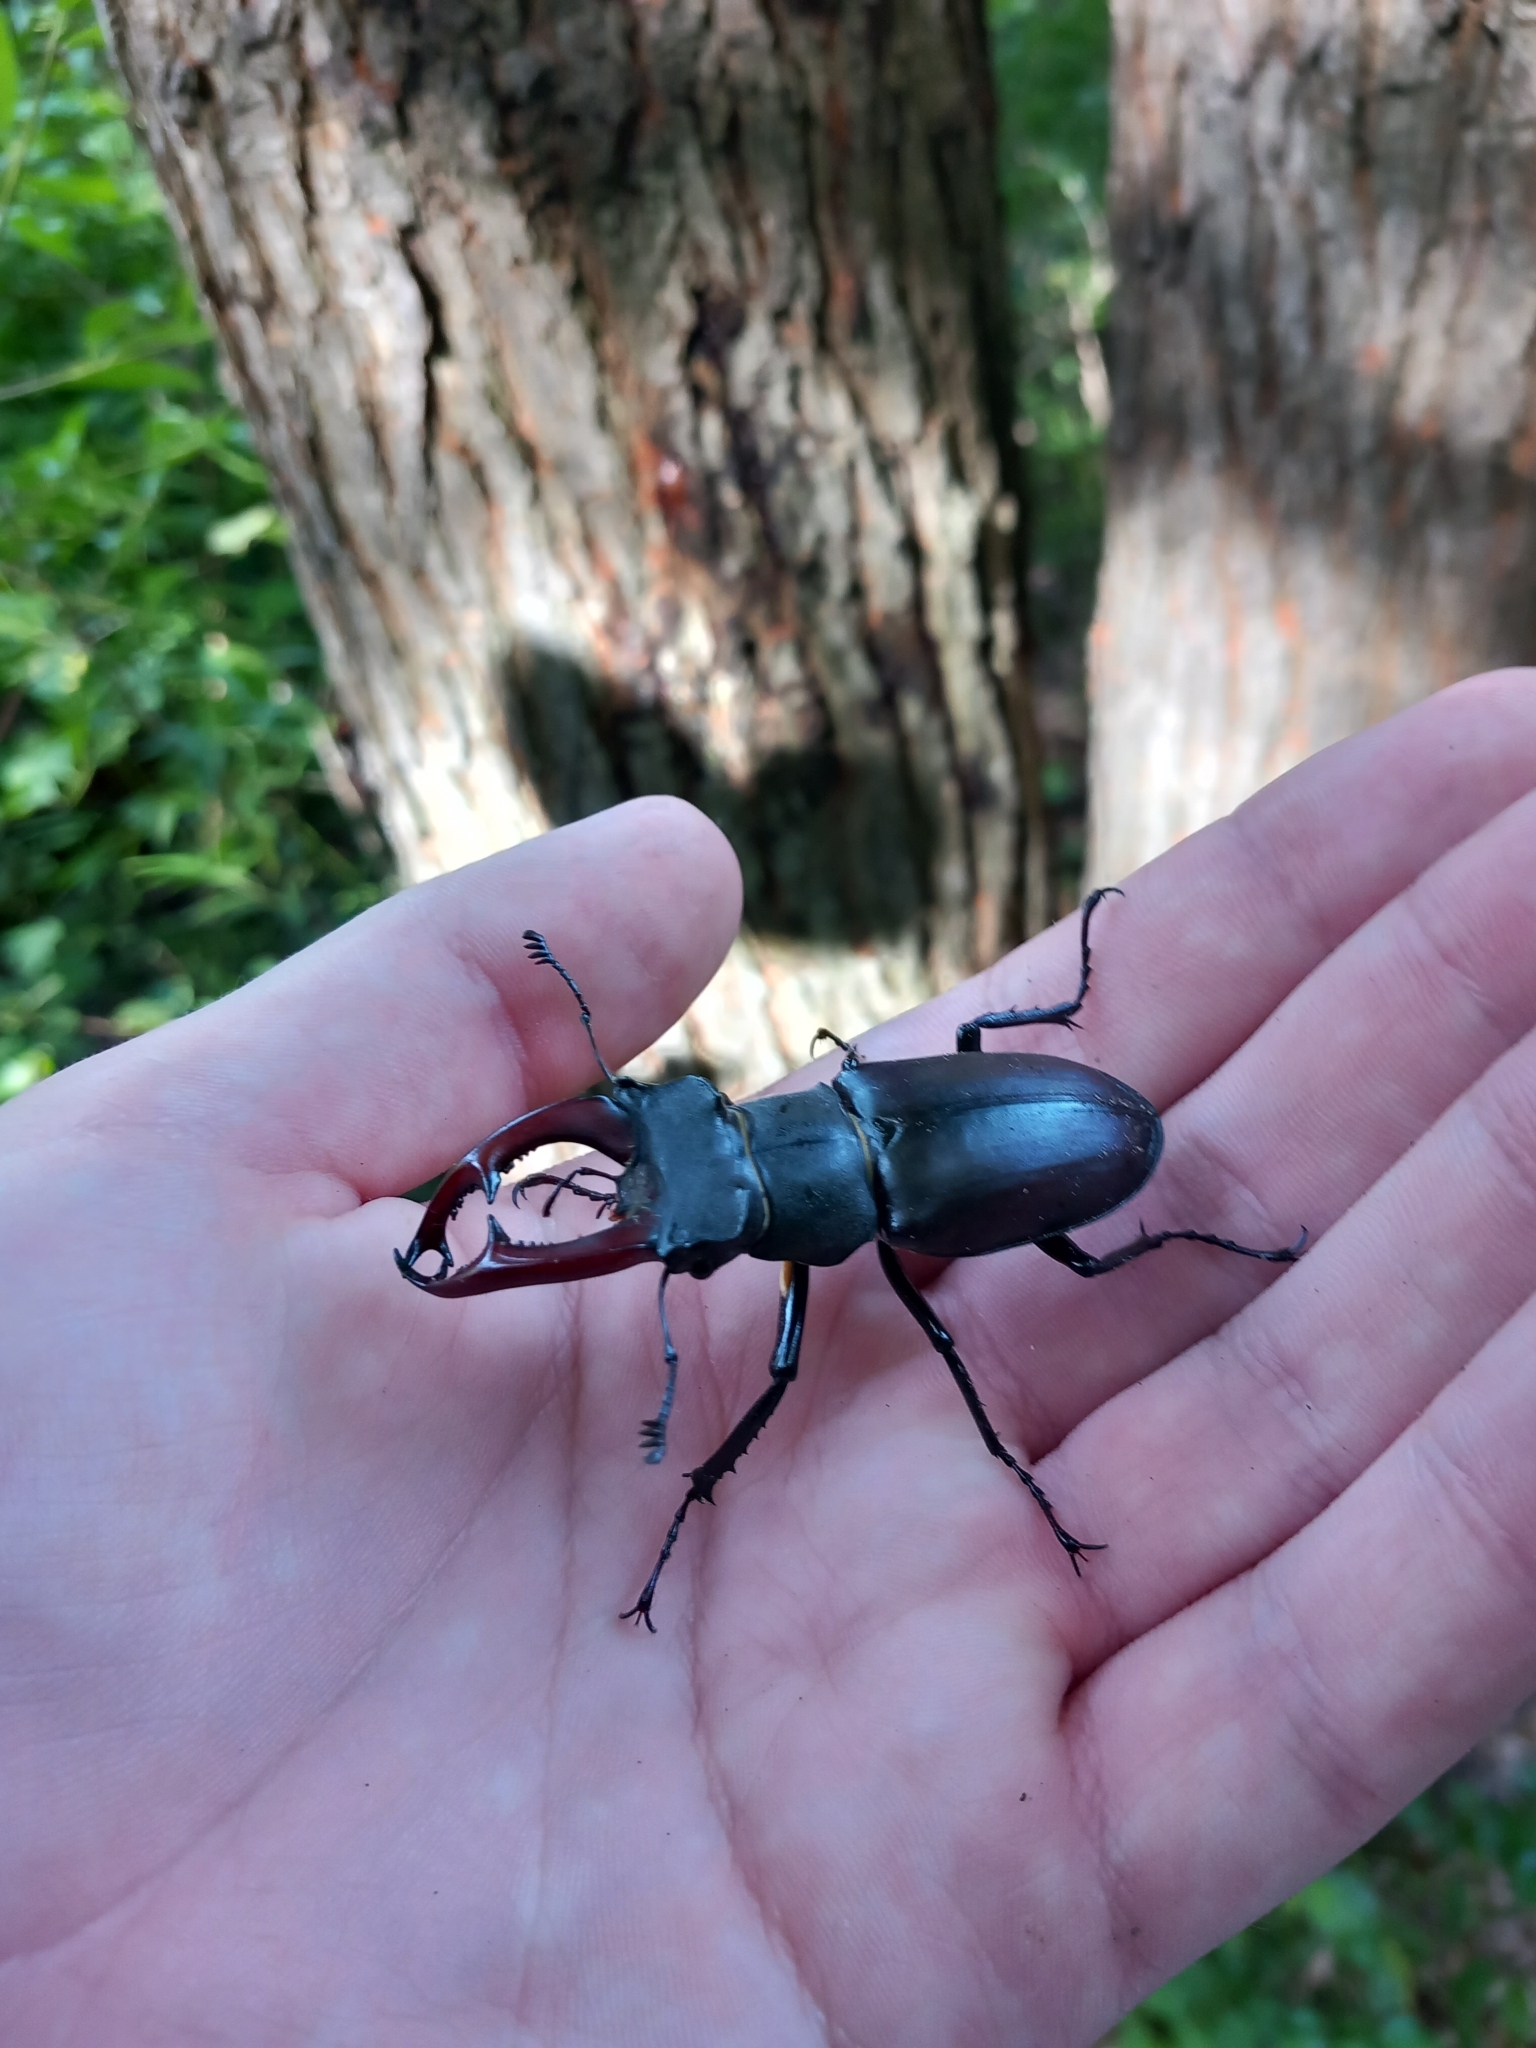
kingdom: Animalia
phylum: Arthropoda
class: Insecta
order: Coleoptera
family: Lucanidae
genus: Lucanus
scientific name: Lucanus cervus
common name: Stag beetle
